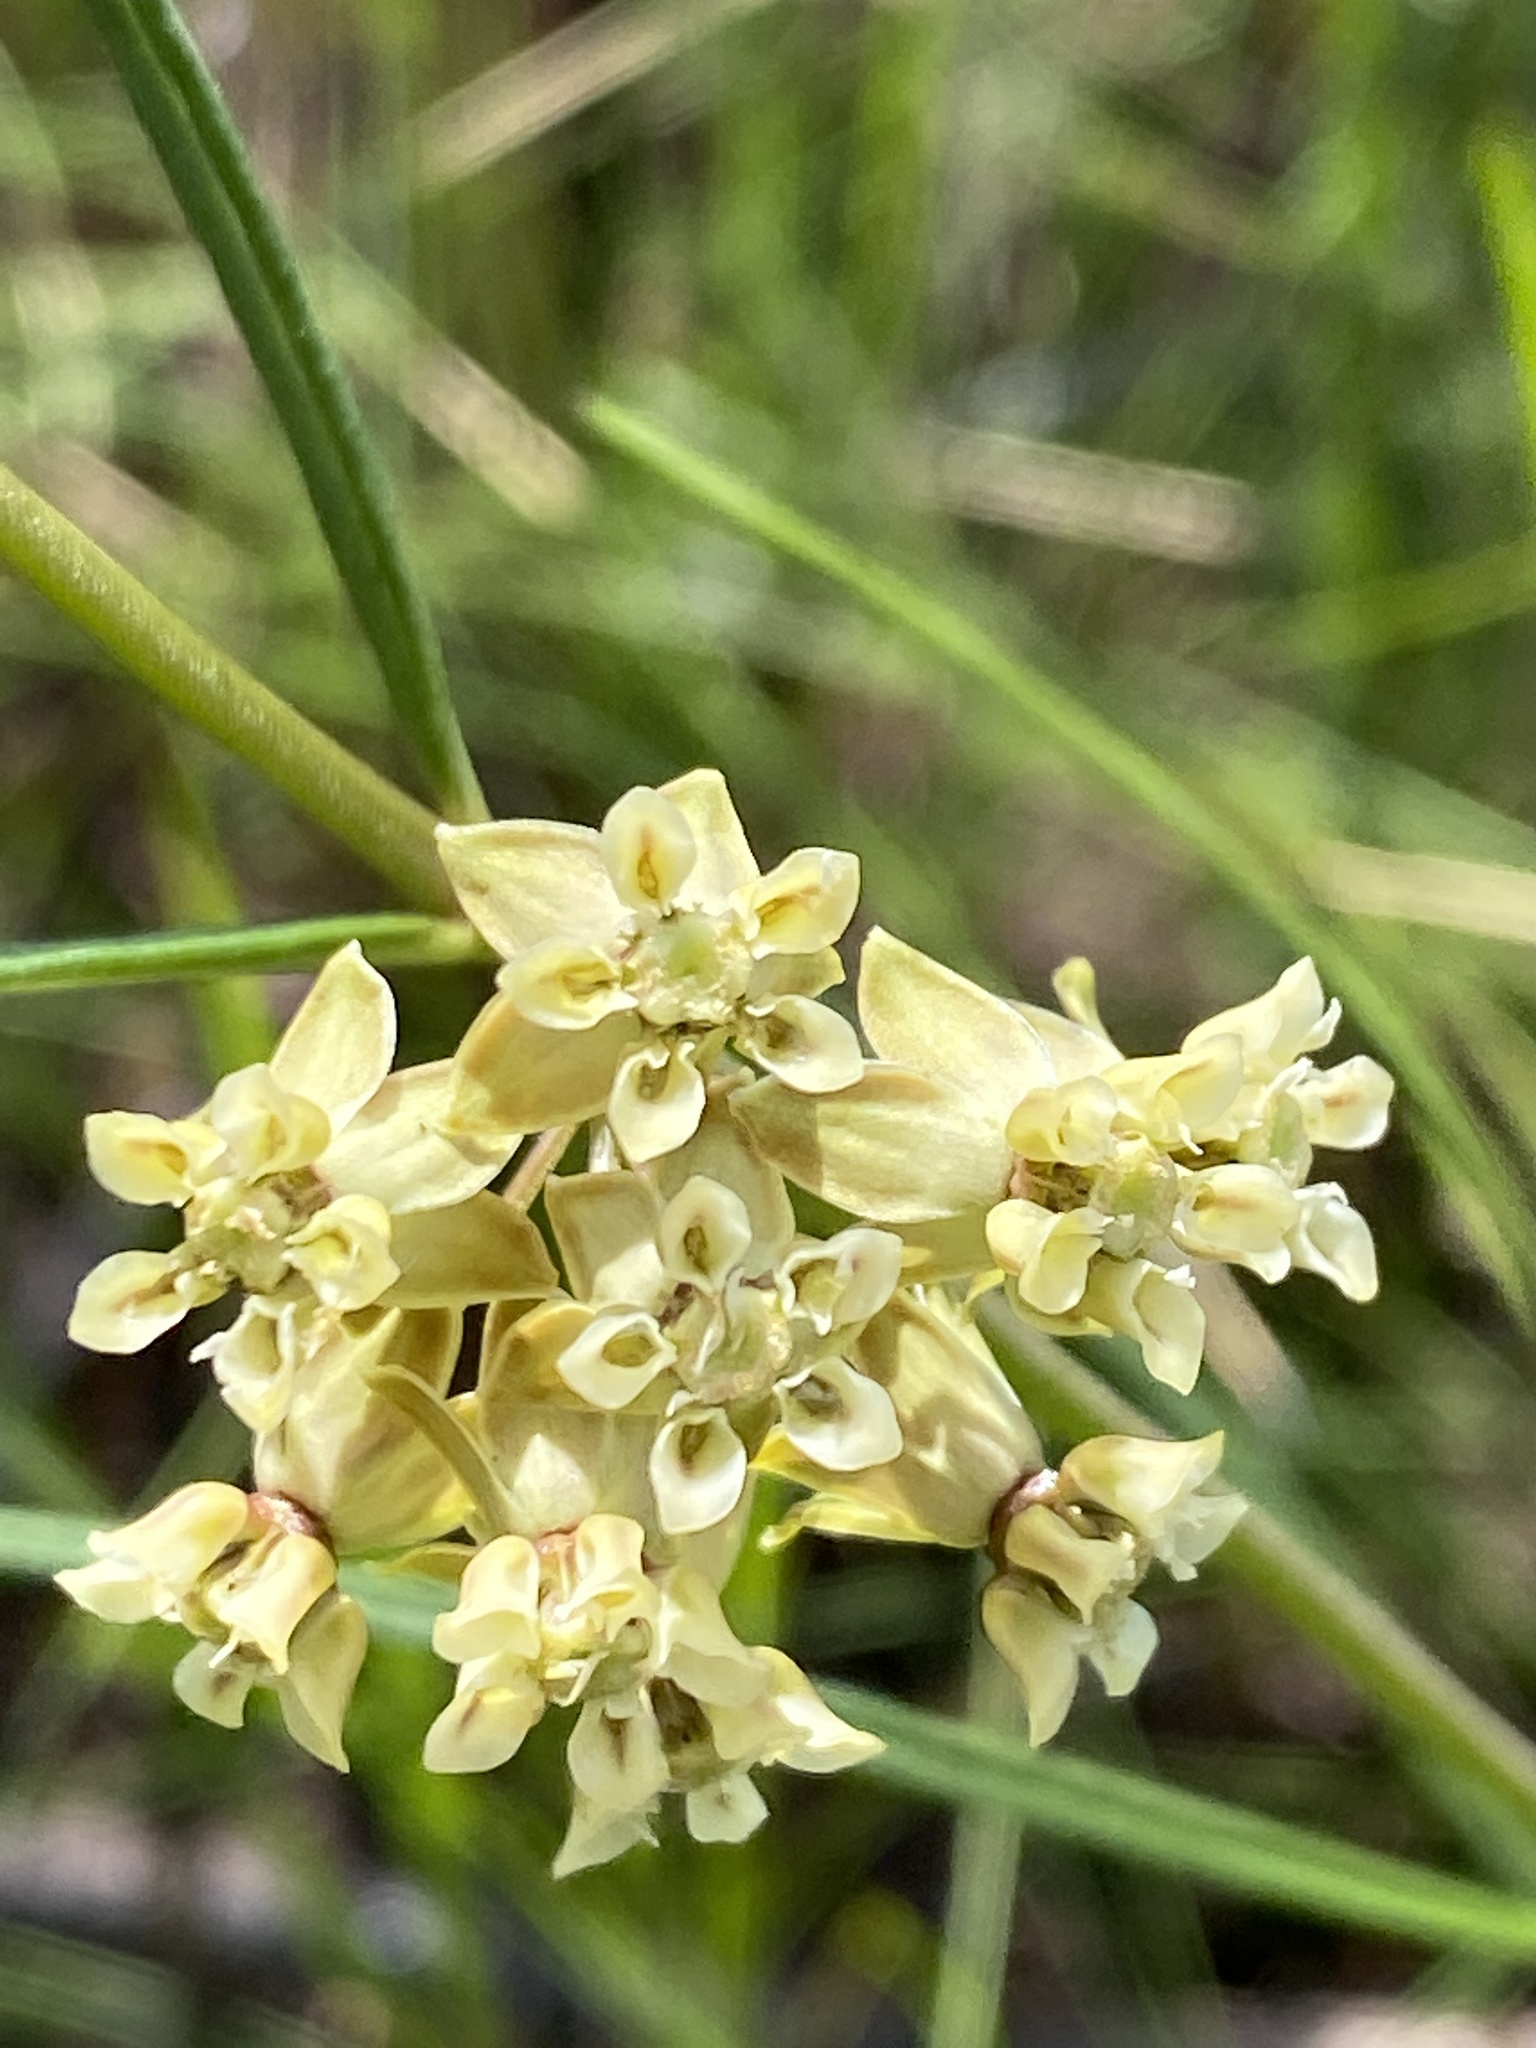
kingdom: Plantae
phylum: Tracheophyta
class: Magnoliopsida
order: Gentianales
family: Apocynaceae
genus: Asclepias
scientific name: Asclepias viridula
